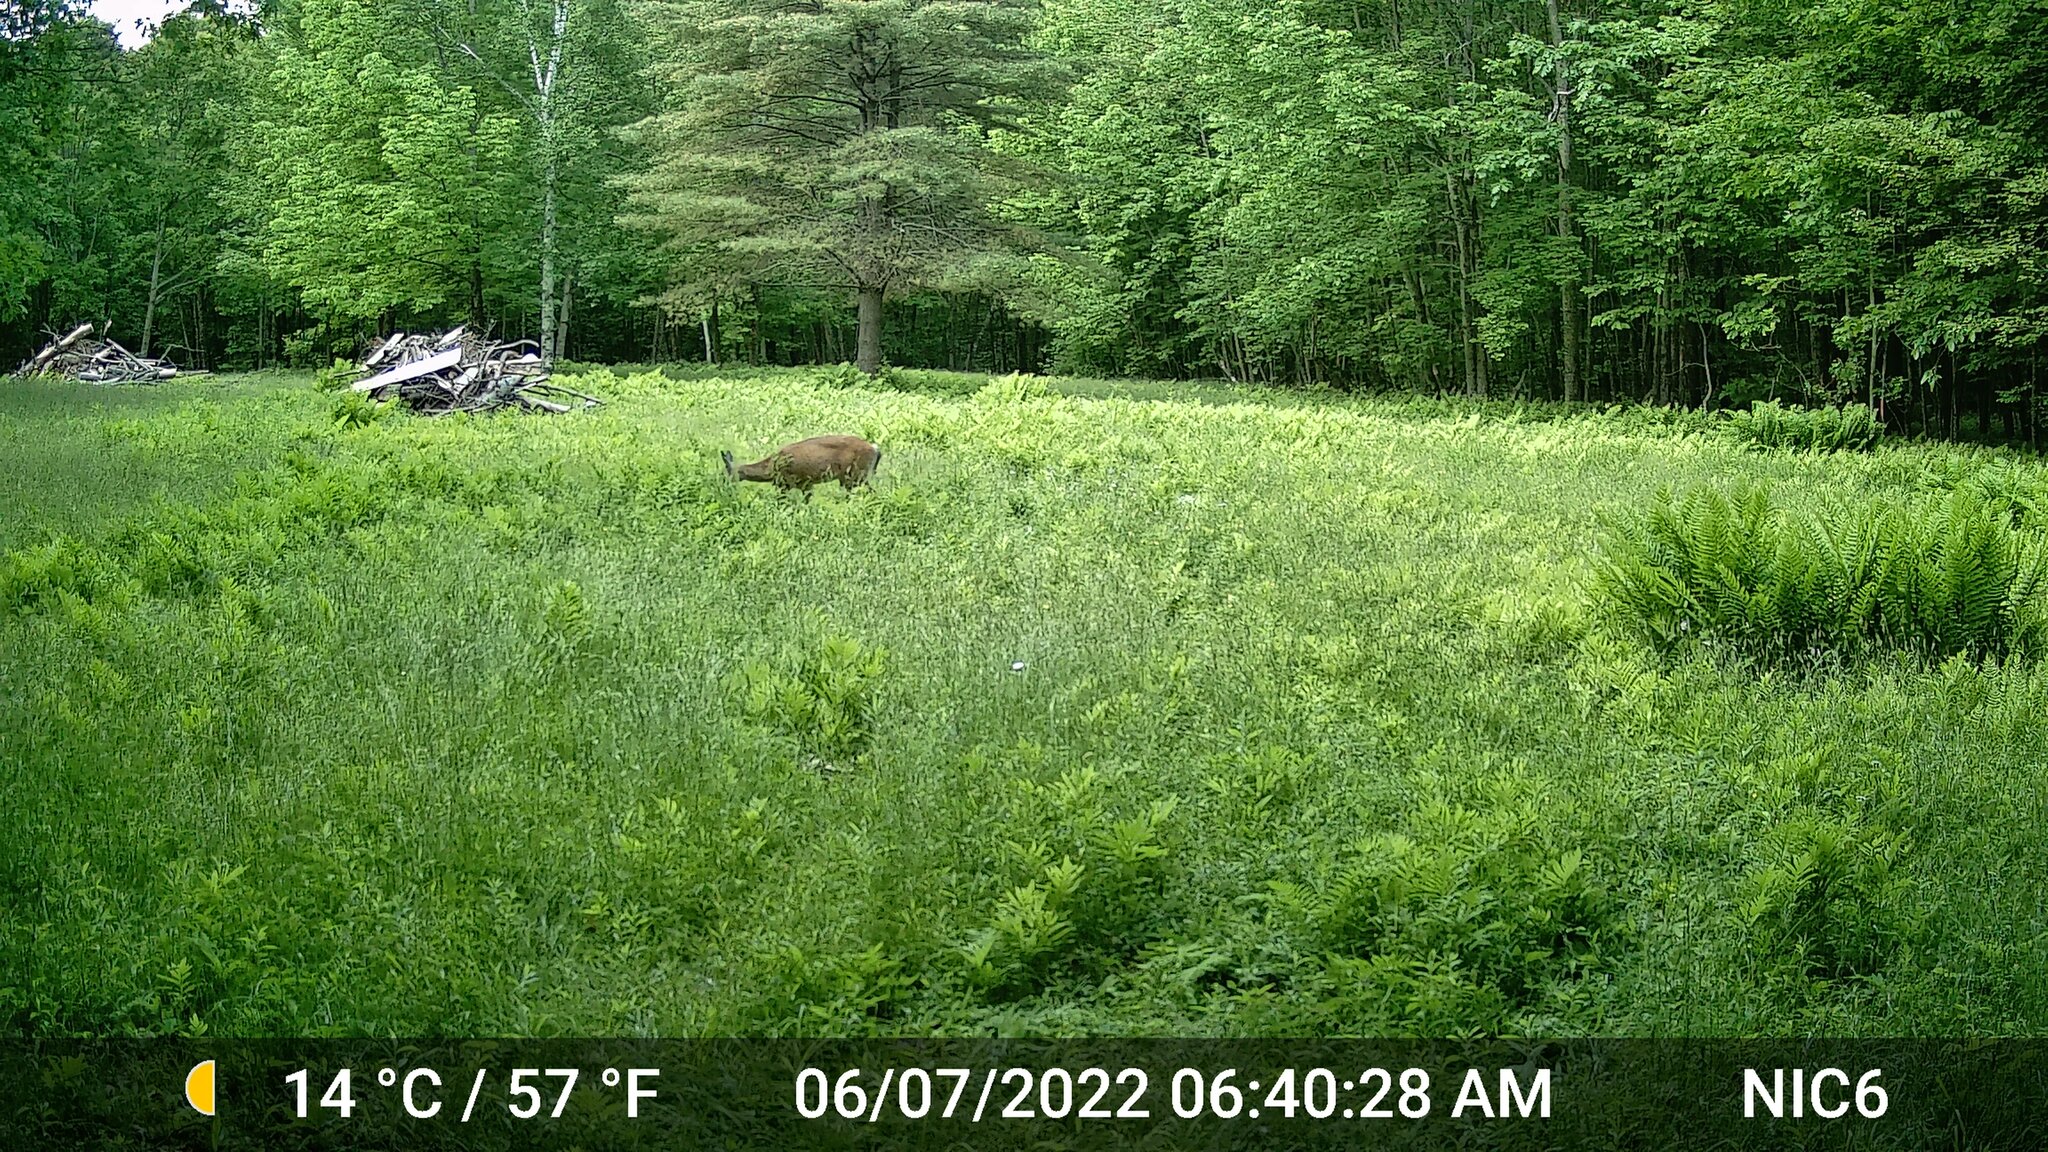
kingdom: Animalia
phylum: Chordata
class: Mammalia
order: Artiodactyla
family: Cervidae
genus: Odocoileus
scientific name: Odocoileus virginianus
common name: White-tailed deer
